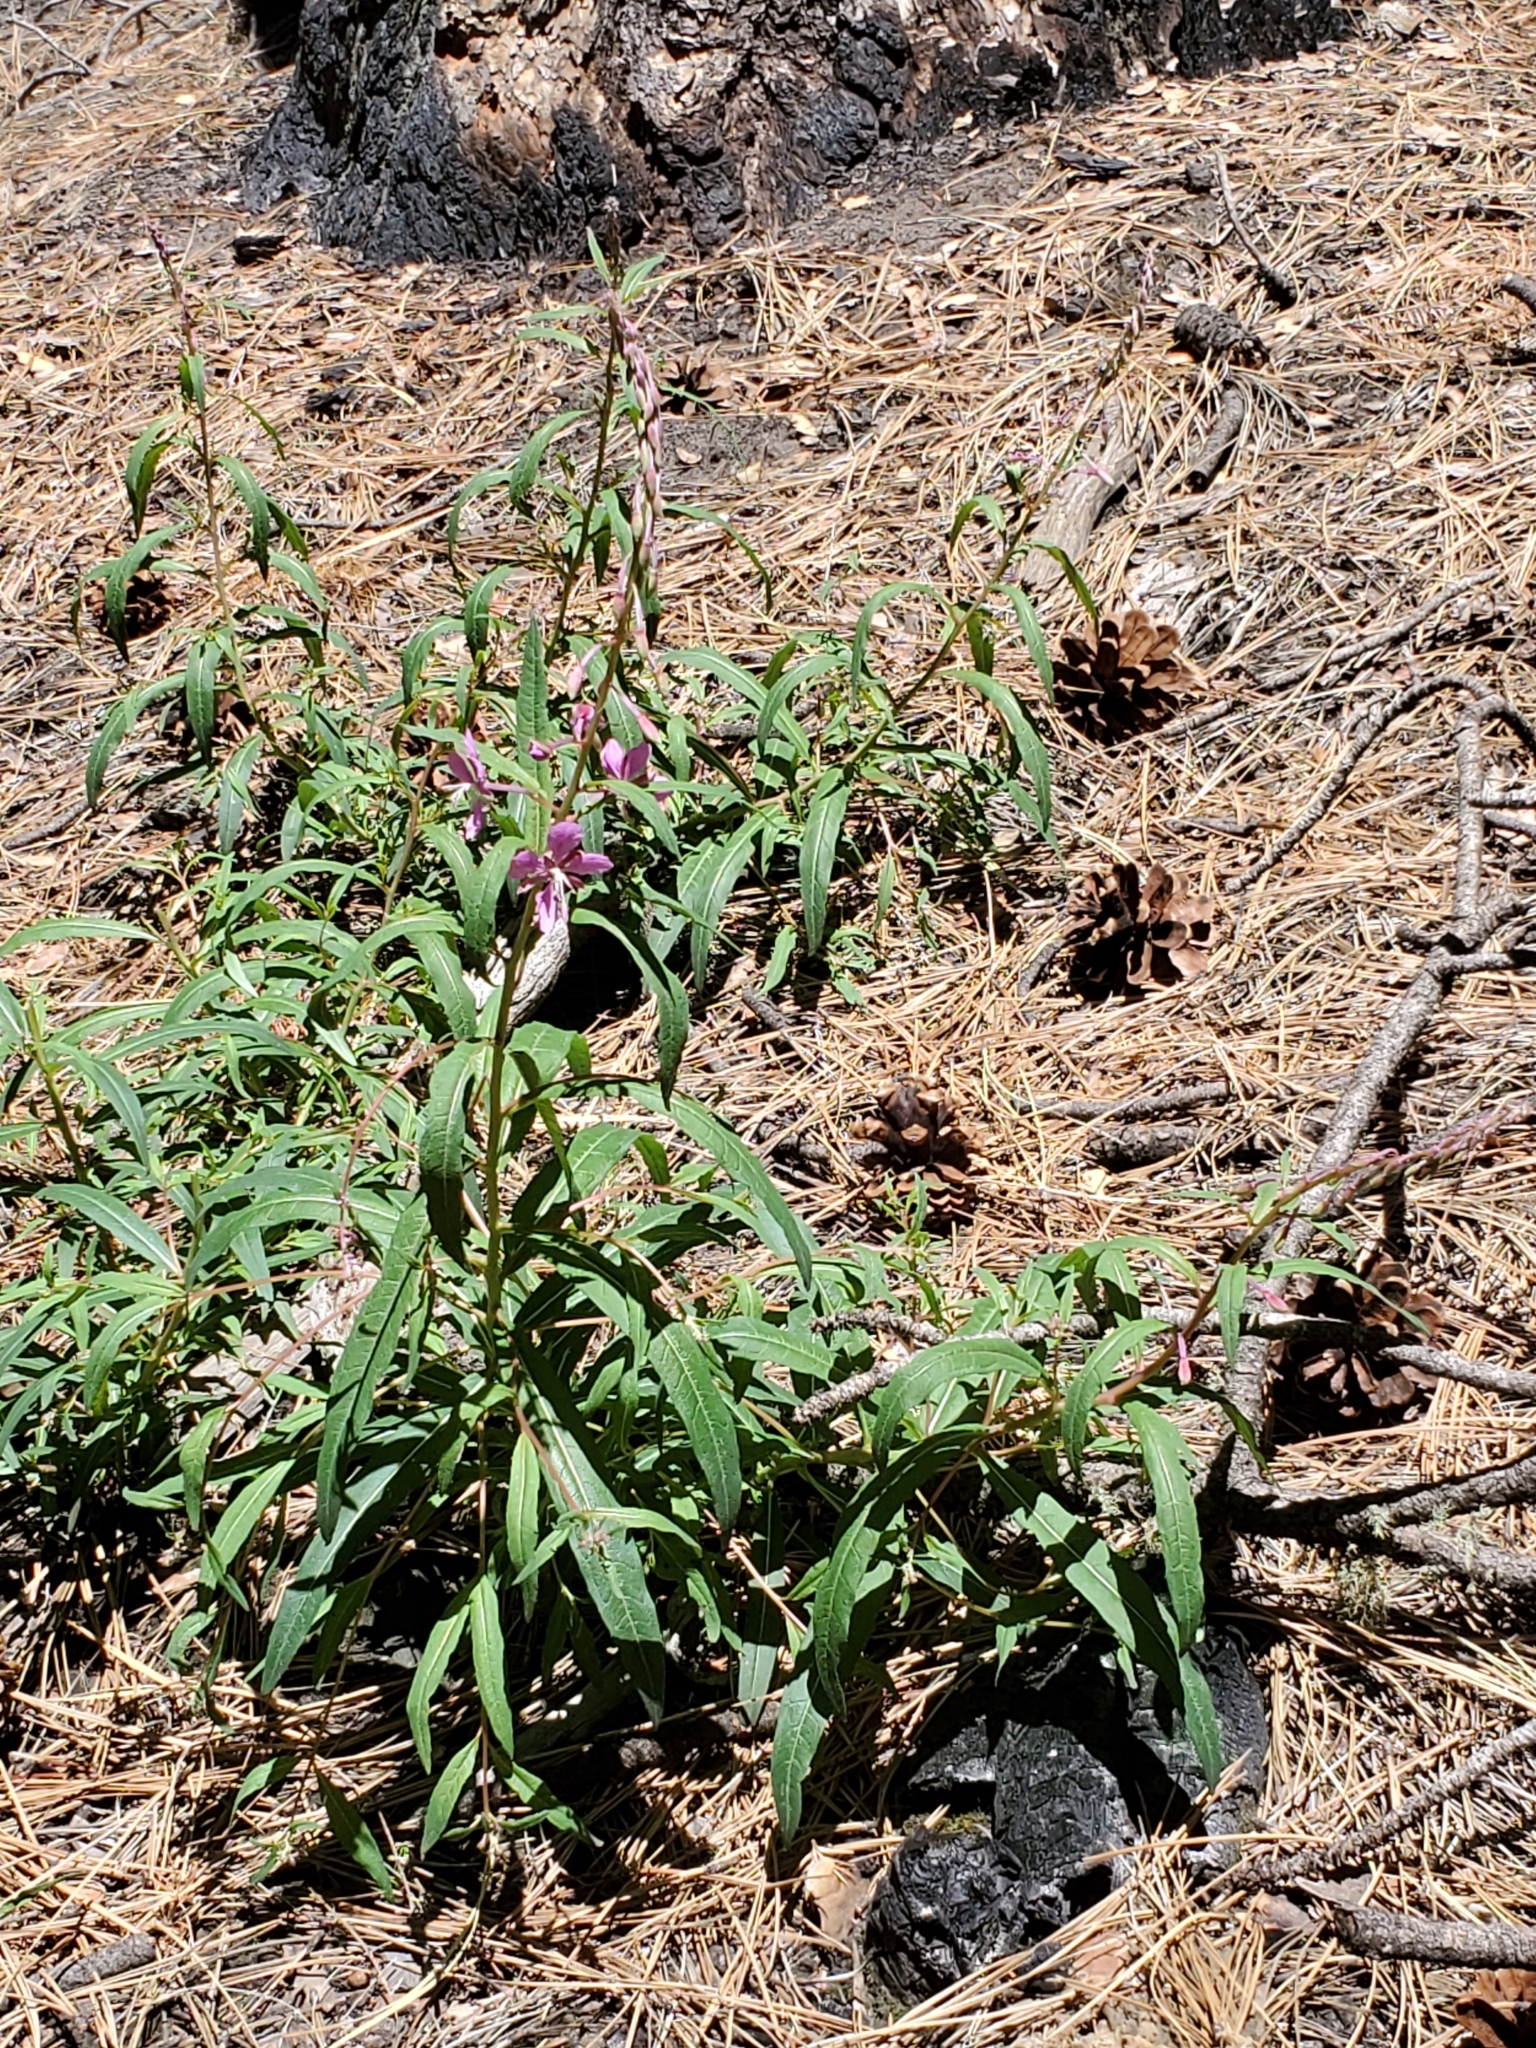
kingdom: Plantae
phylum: Tracheophyta
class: Magnoliopsida
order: Myrtales
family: Onagraceae
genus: Chamaenerion
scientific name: Chamaenerion angustifolium
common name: Fireweed
